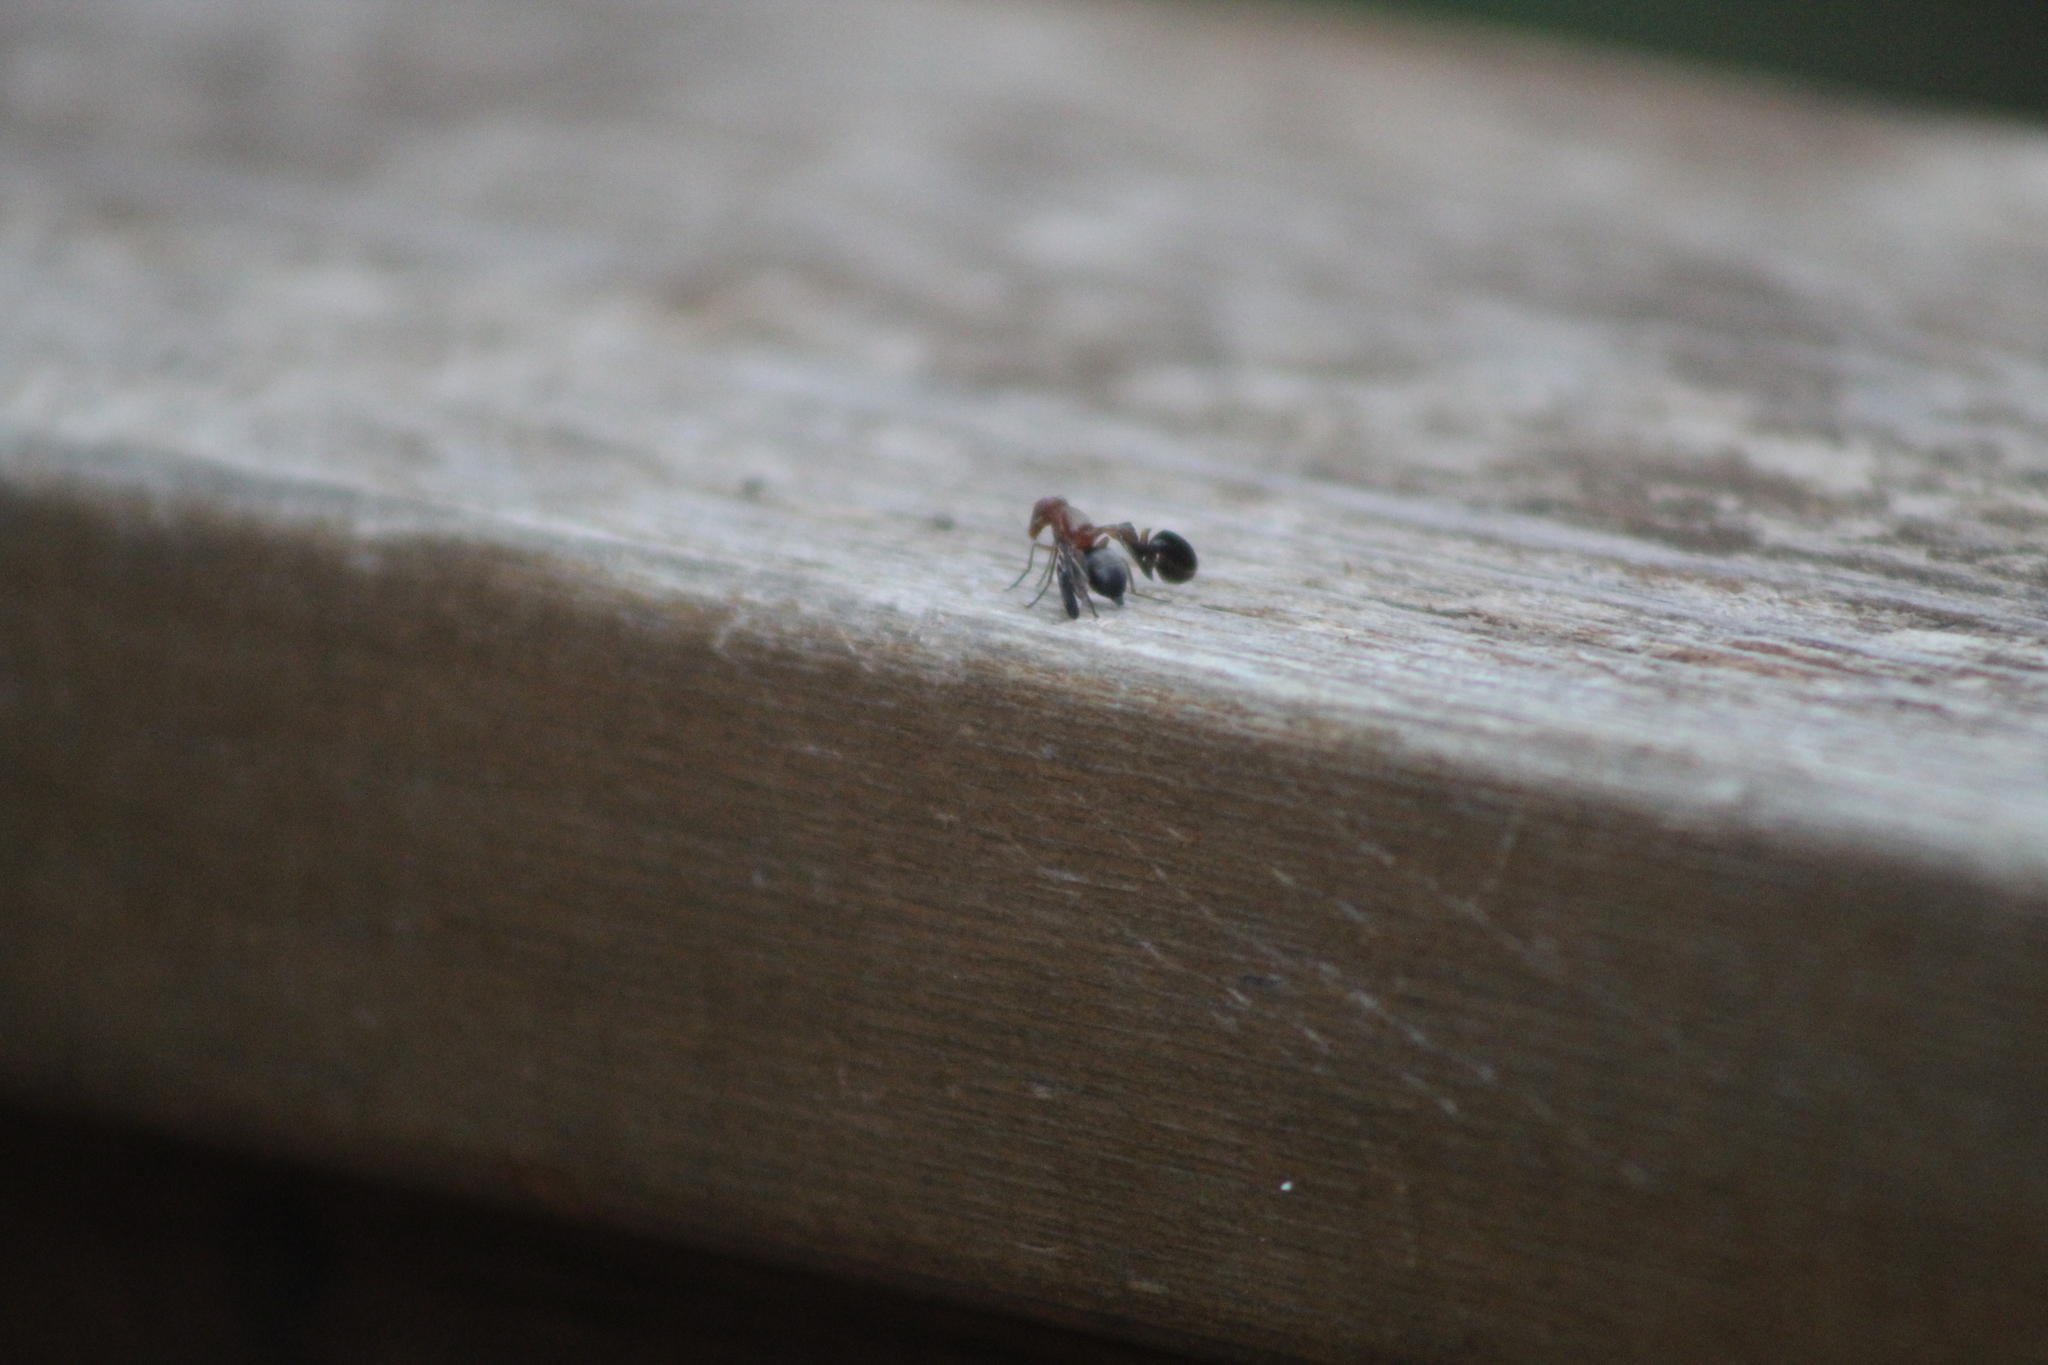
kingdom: Animalia
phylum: Arthropoda
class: Insecta
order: Diptera
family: Ulidiidae
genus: Delphinia
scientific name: Delphinia picta
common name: Common picture-winged fly
